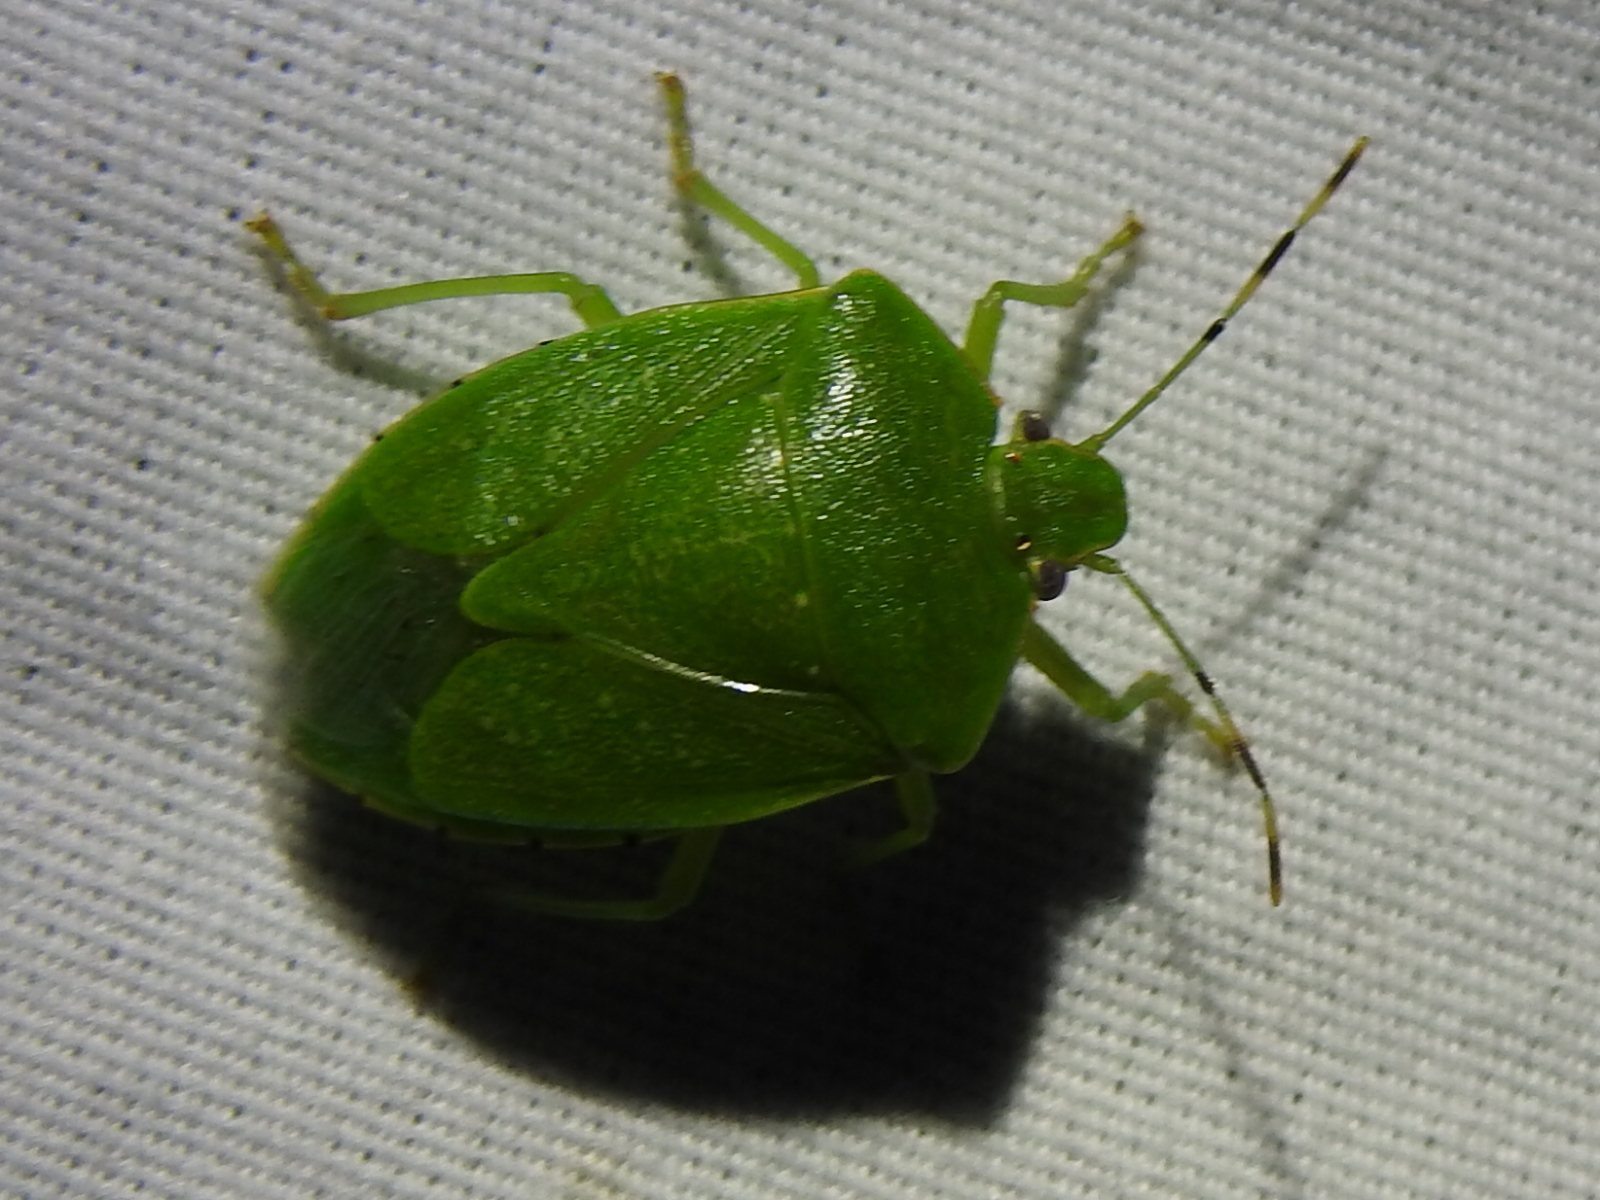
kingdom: Animalia
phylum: Arthropoda
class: Insecta
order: Hemiptera
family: Pentatomidae
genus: Chinavia
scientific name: Chinavia hilaris
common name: Green stink bug
